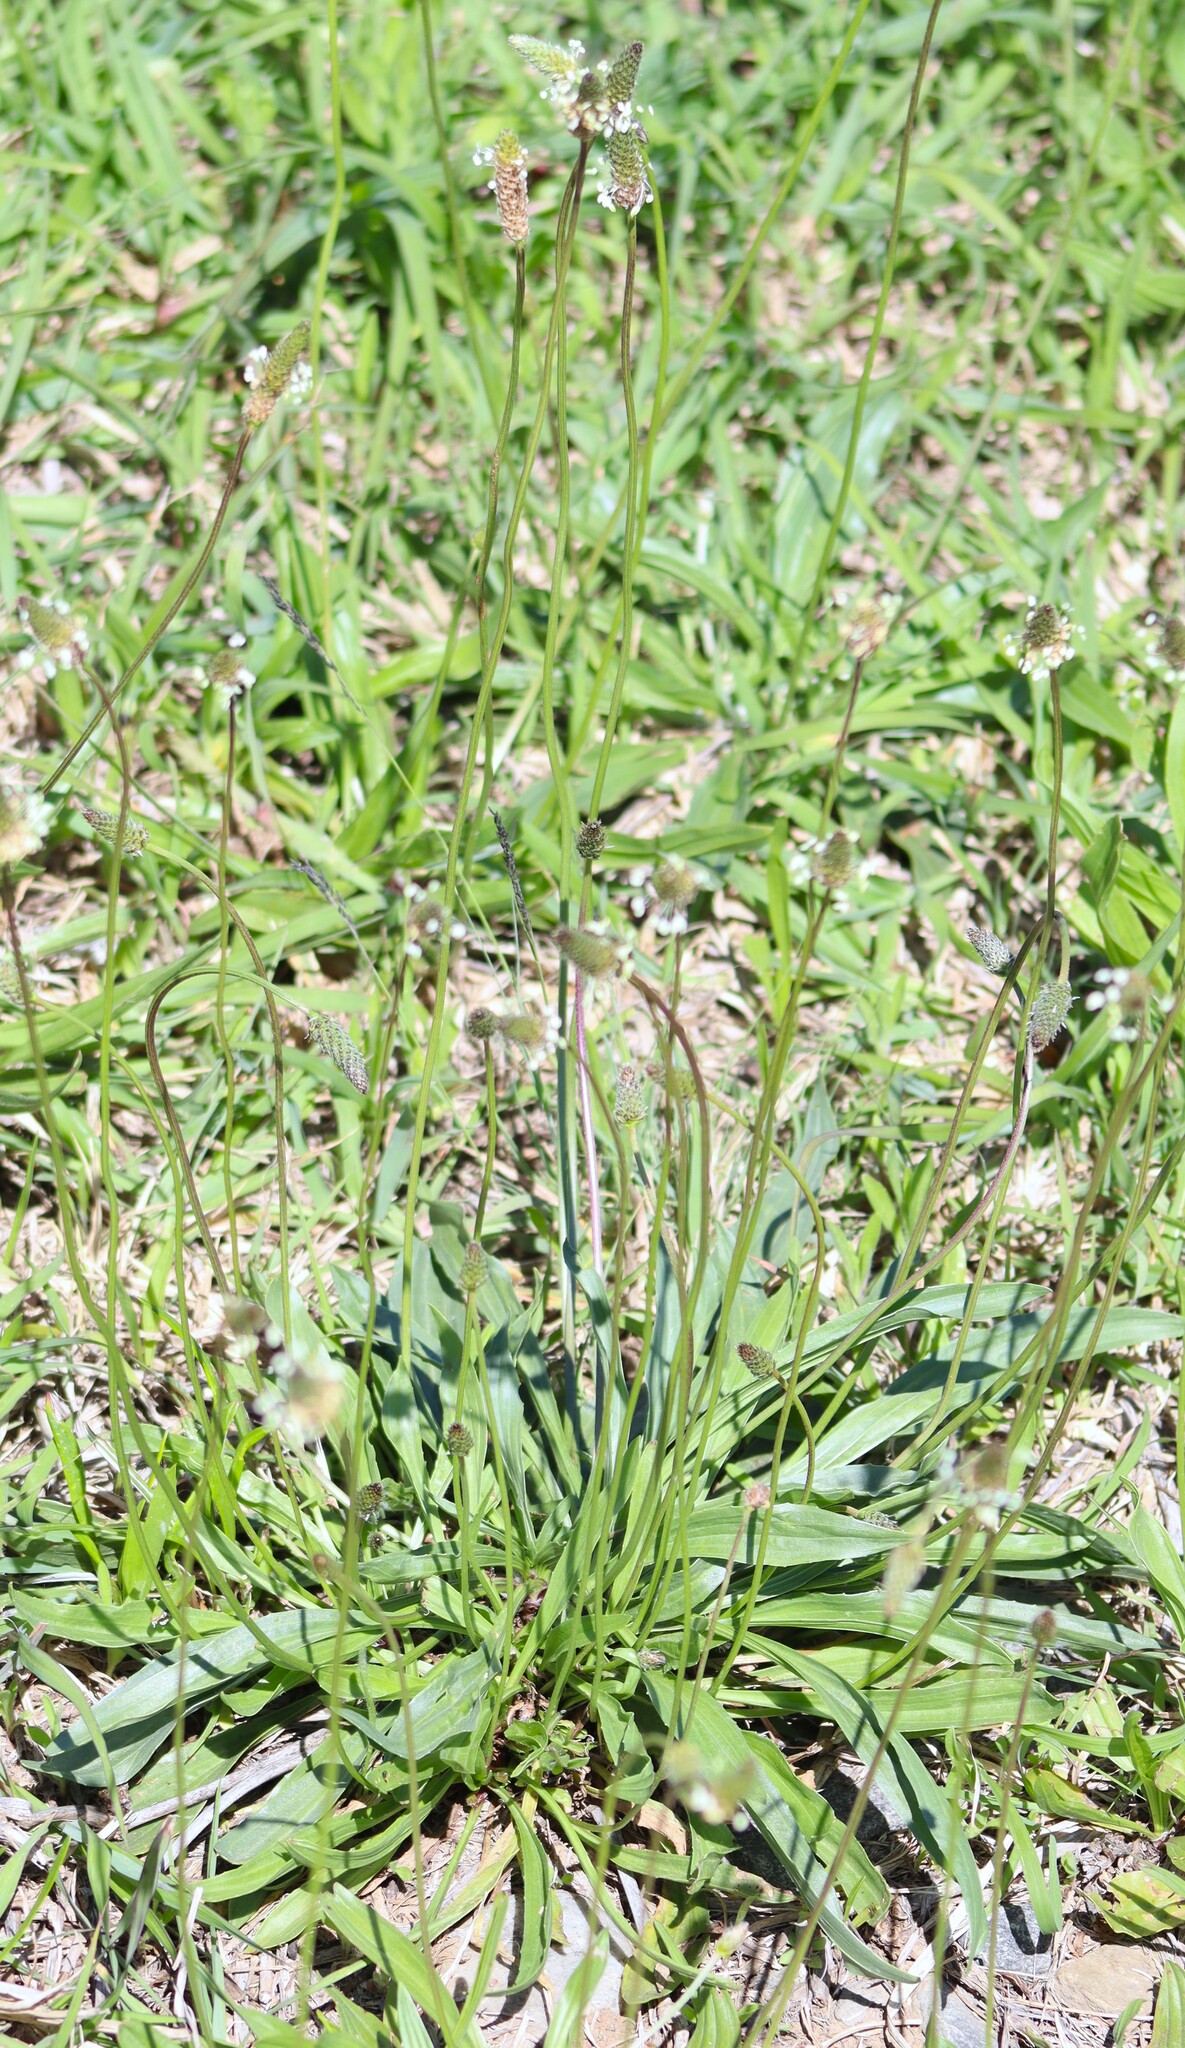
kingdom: Plantae
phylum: Tracheophyta
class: Magnoliopsida
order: Lamiales
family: Plantaginaceae
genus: Plantago
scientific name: Plantago lanceolata
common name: Ribwort plantain
